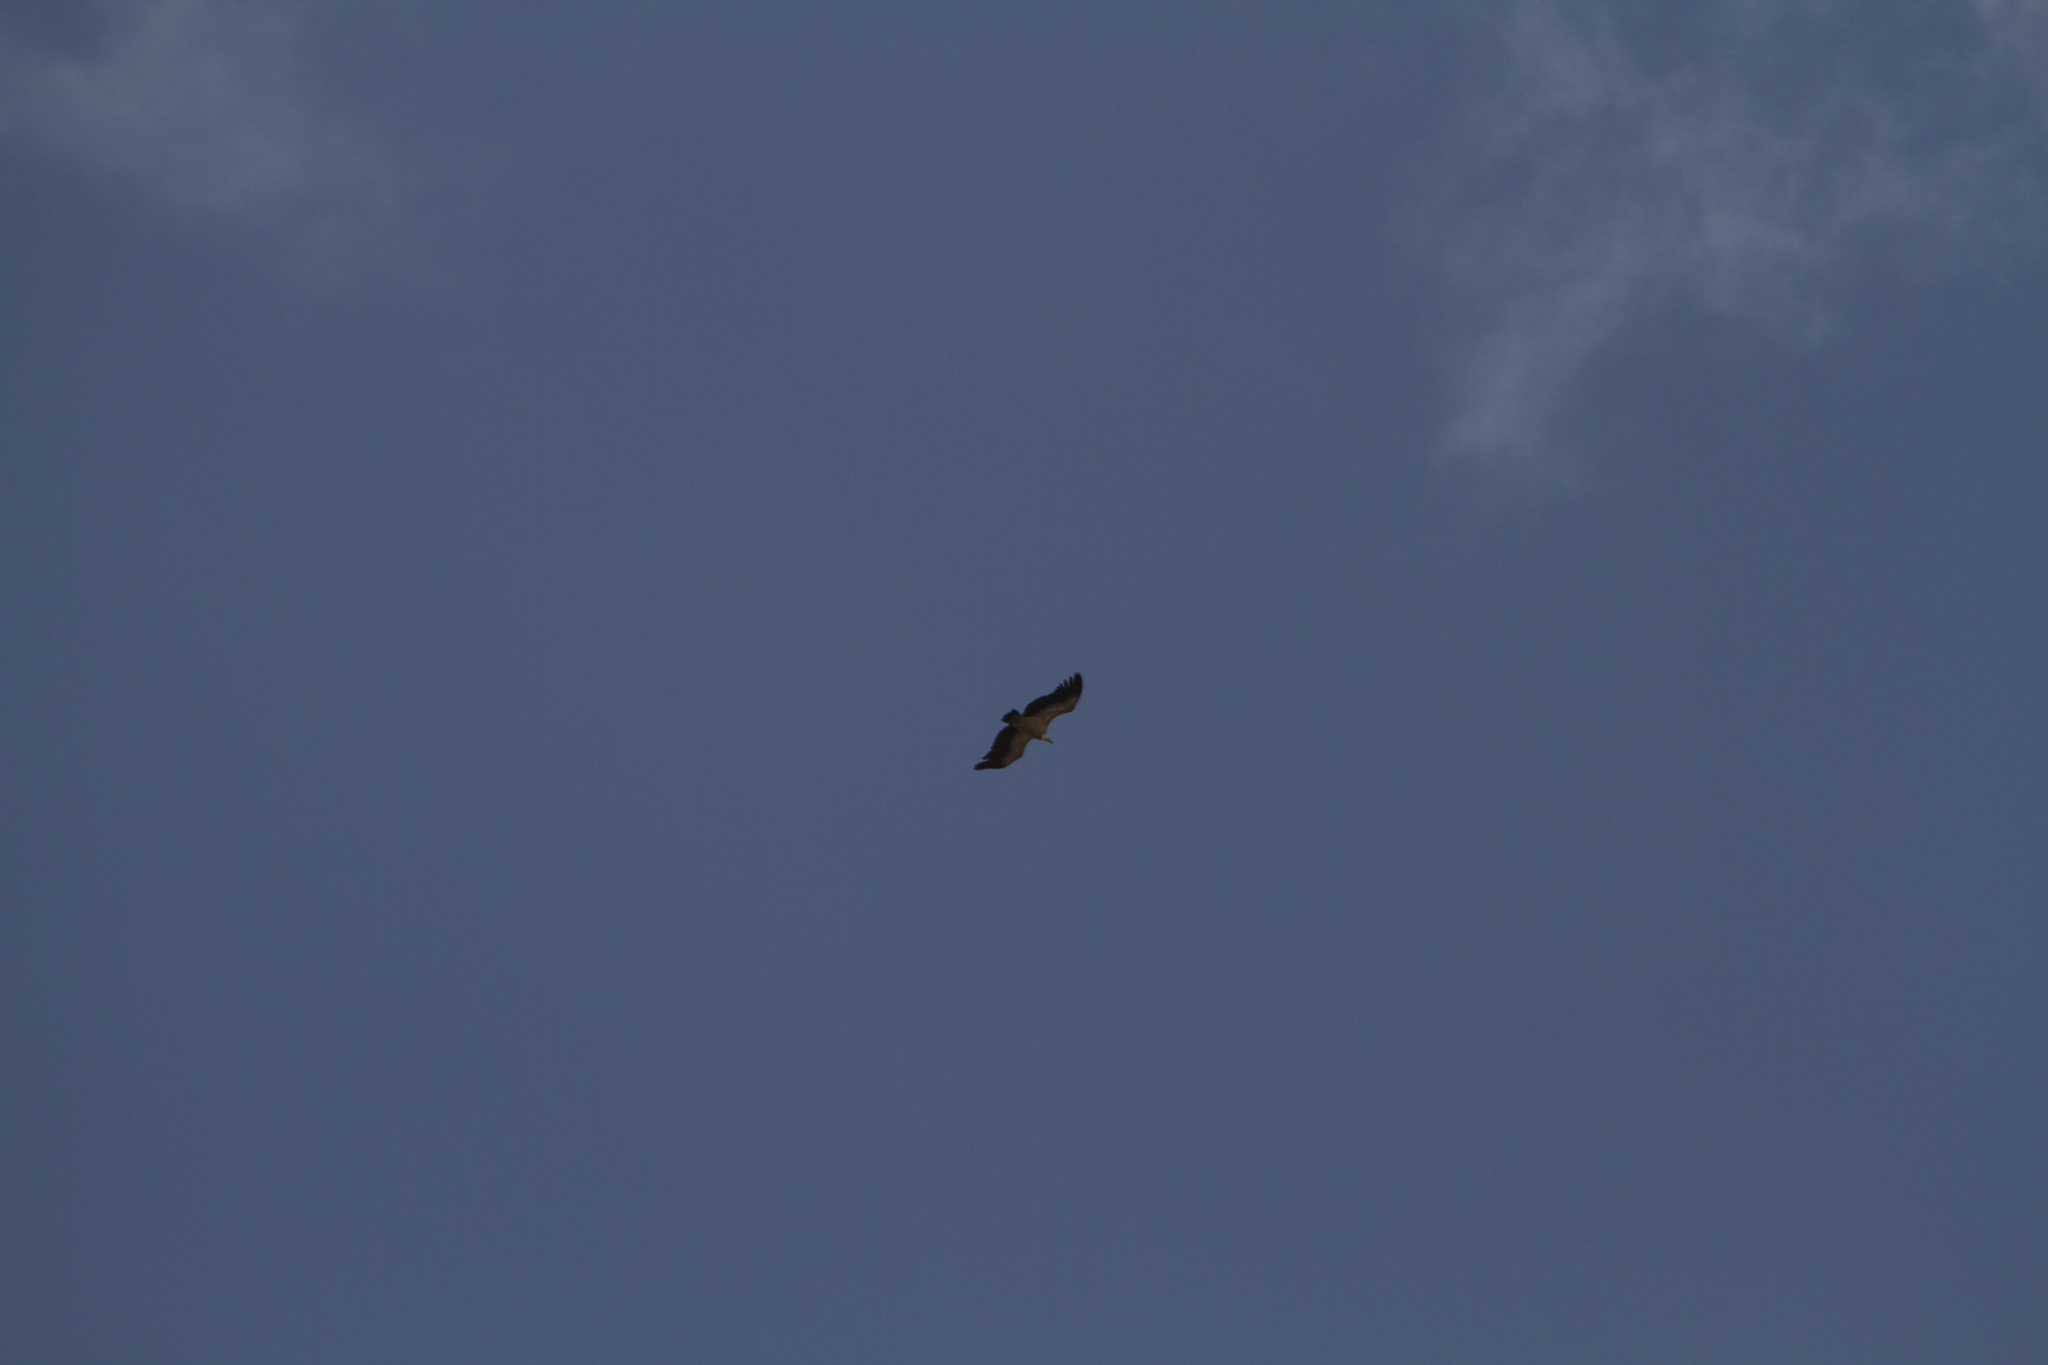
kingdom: Animalia
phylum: Chordata
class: Aves
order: Accipitriformes
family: Accipitridae
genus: Gyps
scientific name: Gyps fulvus
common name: Griffon vulture
